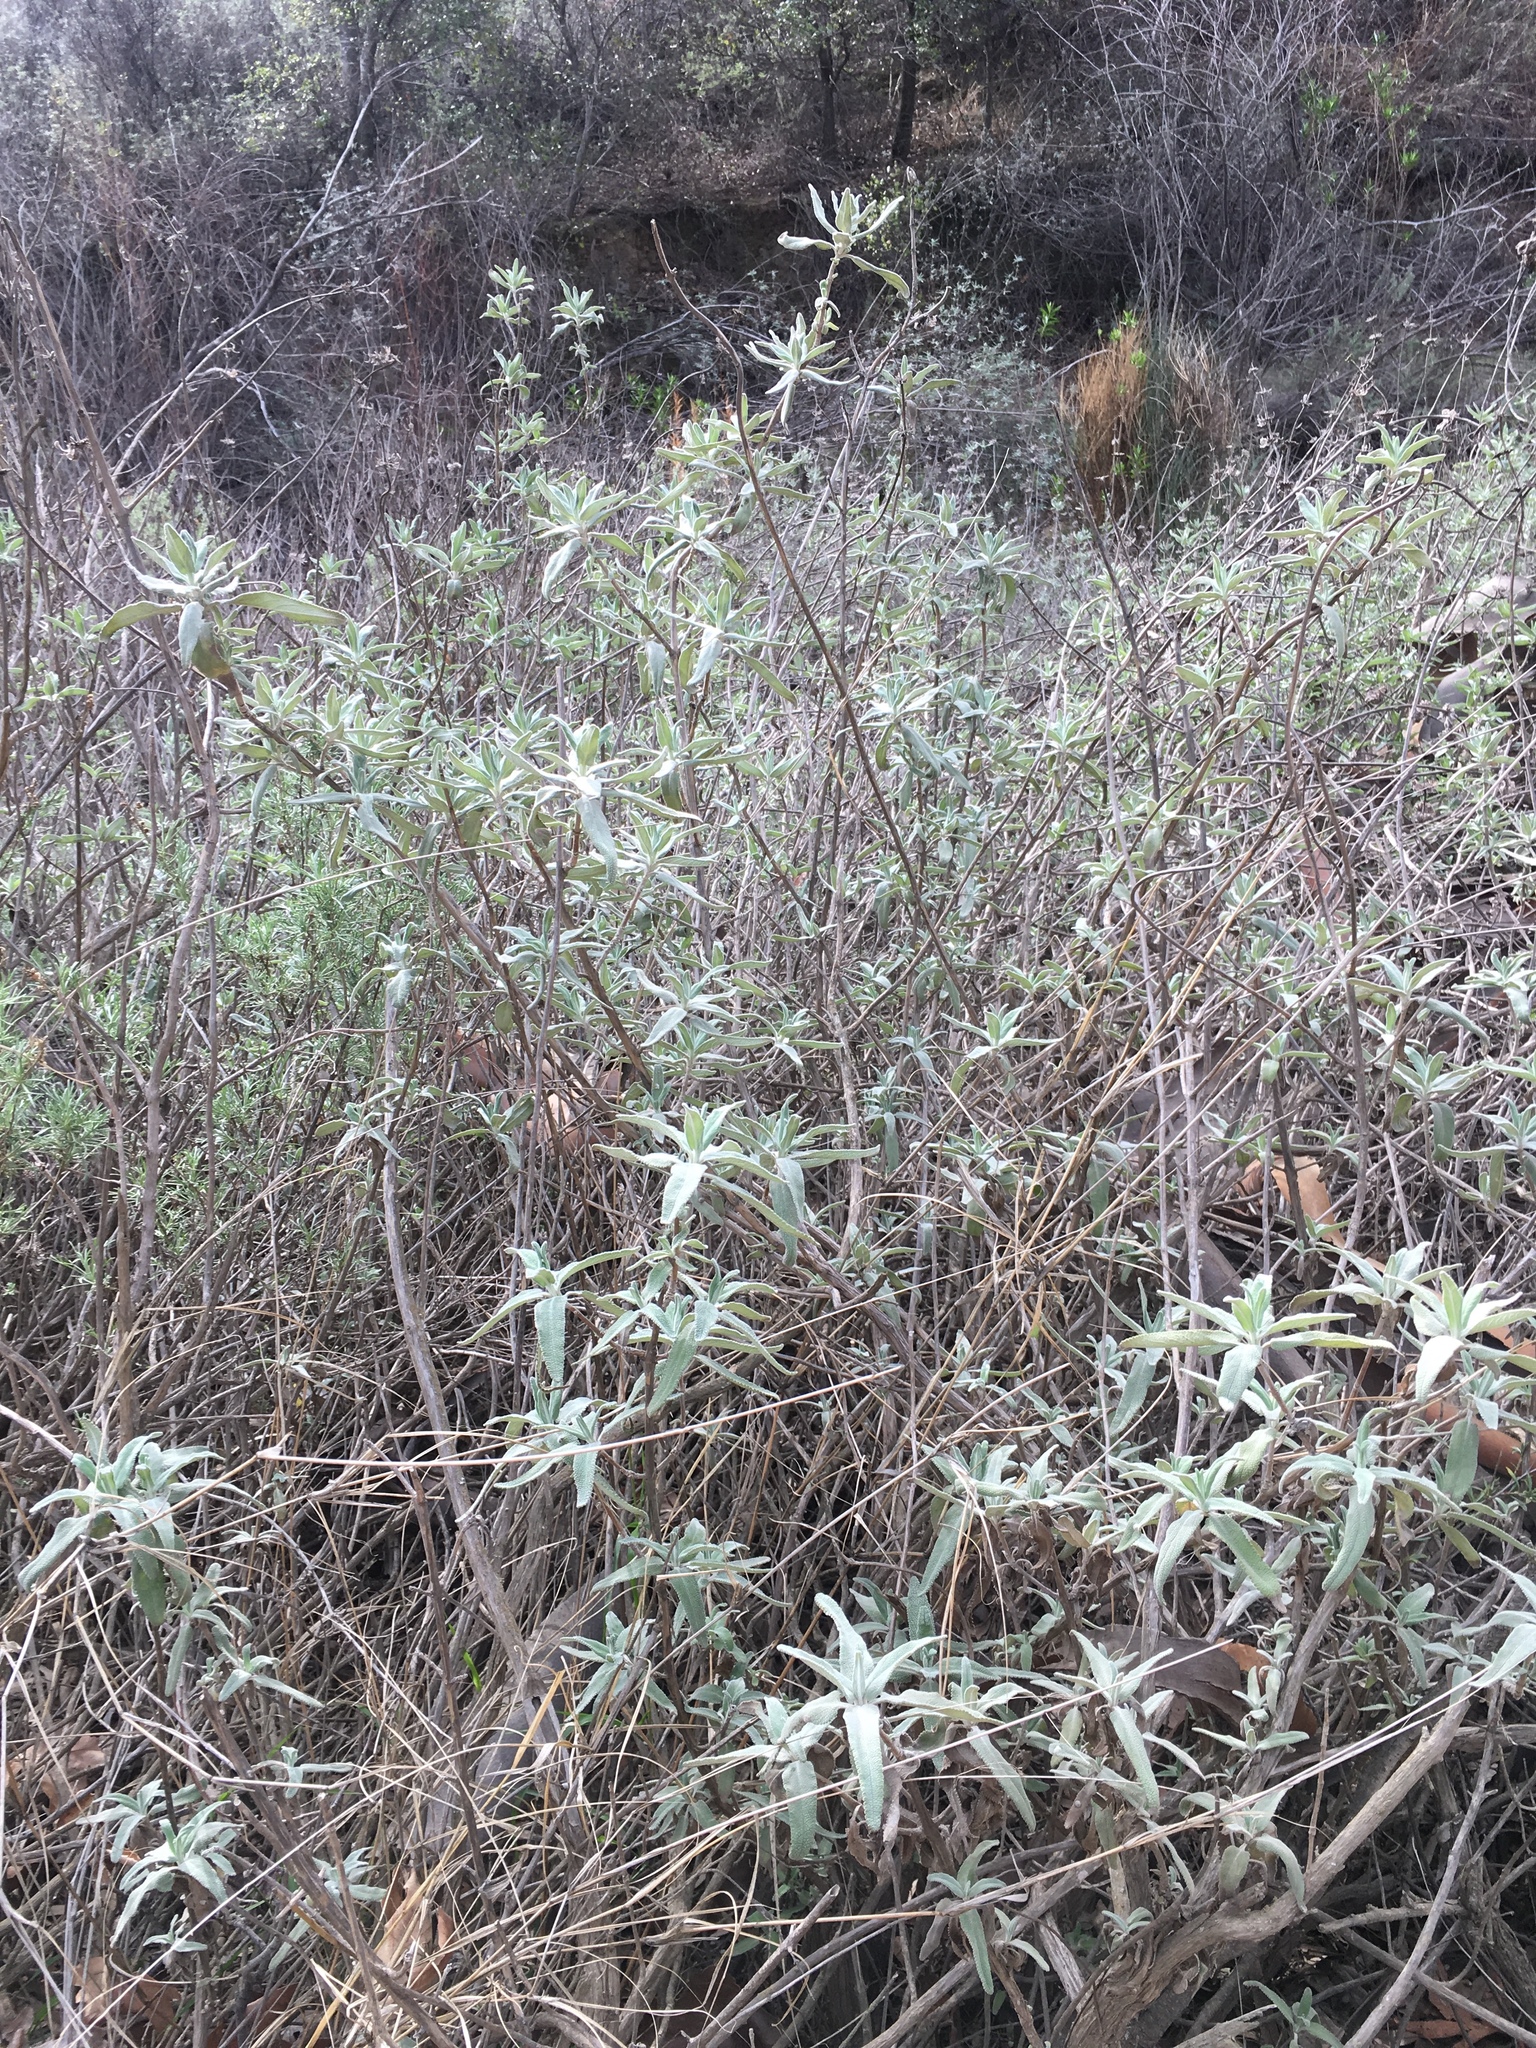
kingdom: Plantae
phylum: Tracheophyta
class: Magnoliopsida
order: Lamiales
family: Lamiaceae
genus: Salvia
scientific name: Salvia leucophylla
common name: Purple sage
